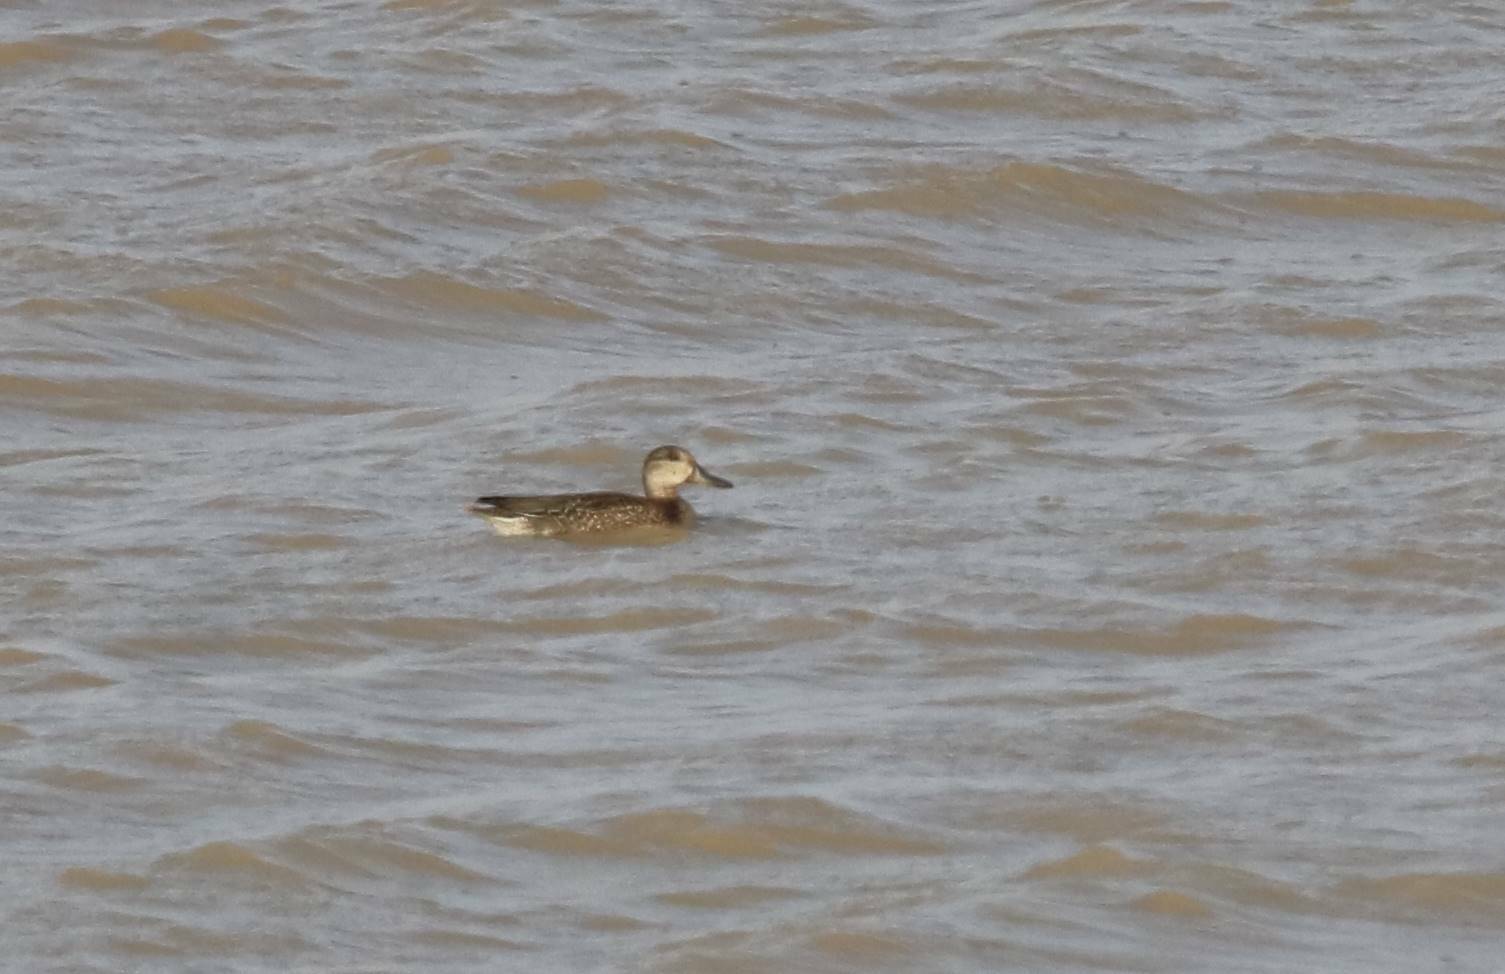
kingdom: Animalia
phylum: Chordata
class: Aves
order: Anseriformes
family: Anatidae
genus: Anas
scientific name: Anas crecca
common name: Eurasian teal
